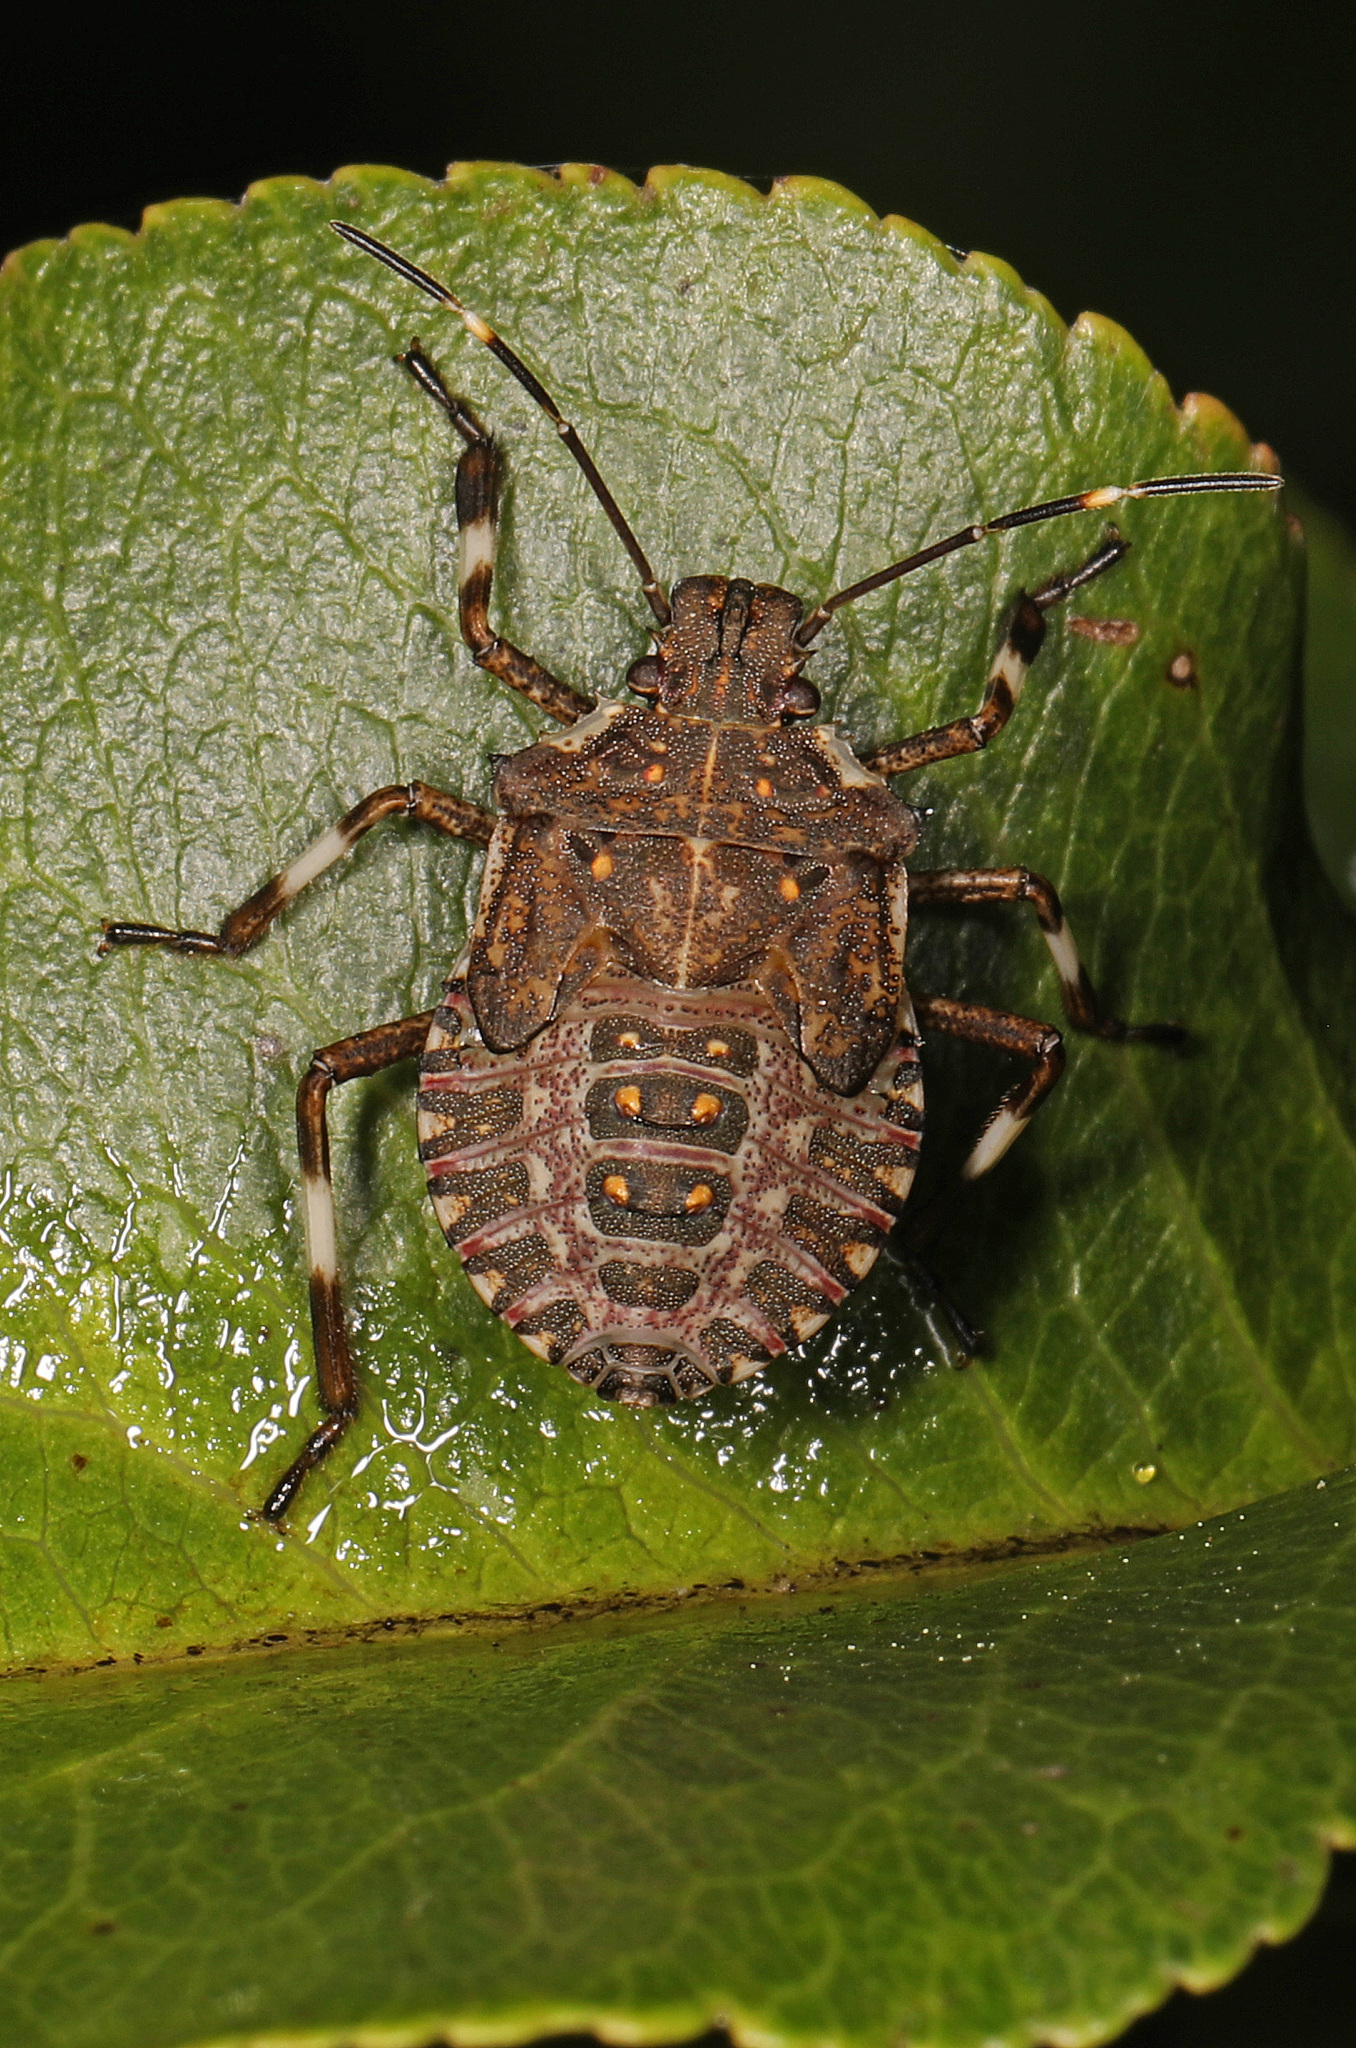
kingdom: Animalia
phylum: Arthropoda
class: Insecta
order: Hemiptera
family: Pentatomidae
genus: Halyomorpha
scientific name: Halyomorpha halys
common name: Brown marmorated stink bug
